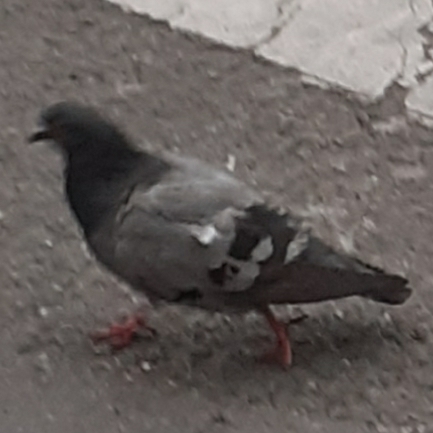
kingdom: Animalia
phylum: Chordata
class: Aves
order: Columbiformes
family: Columbidae
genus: Columba
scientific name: Columba livia
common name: Rock pigeon
